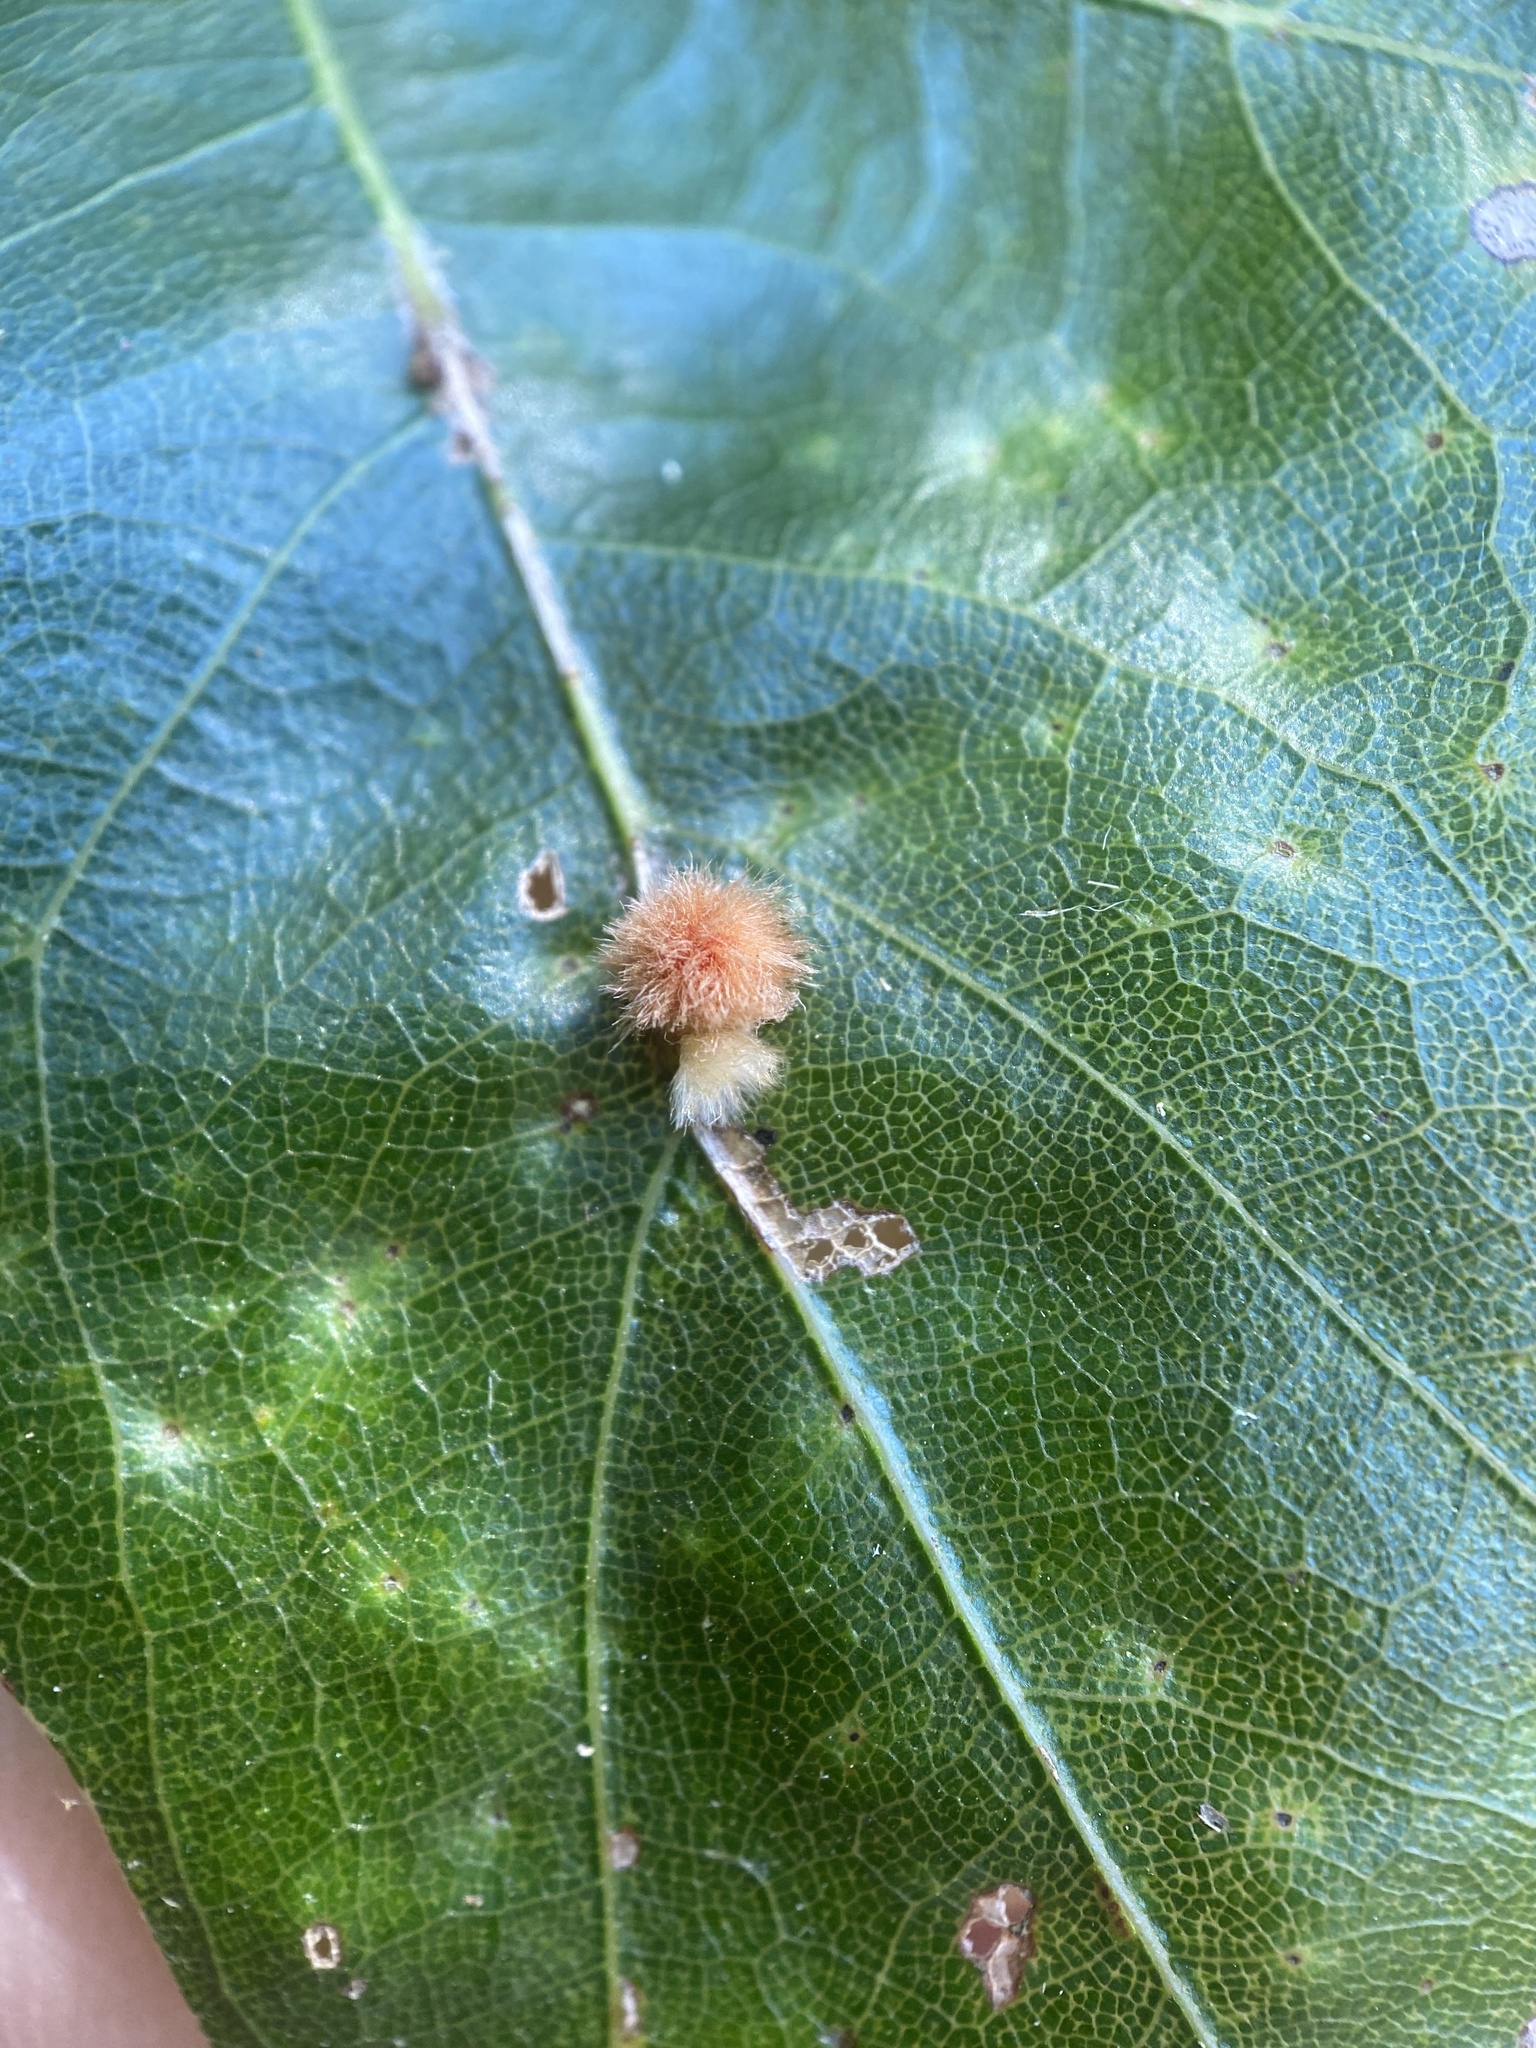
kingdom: Animalia
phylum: Arthropoda
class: Insecta
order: Hymenoptera
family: Cynipidae
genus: Callirhytis
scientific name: Callirhytis
